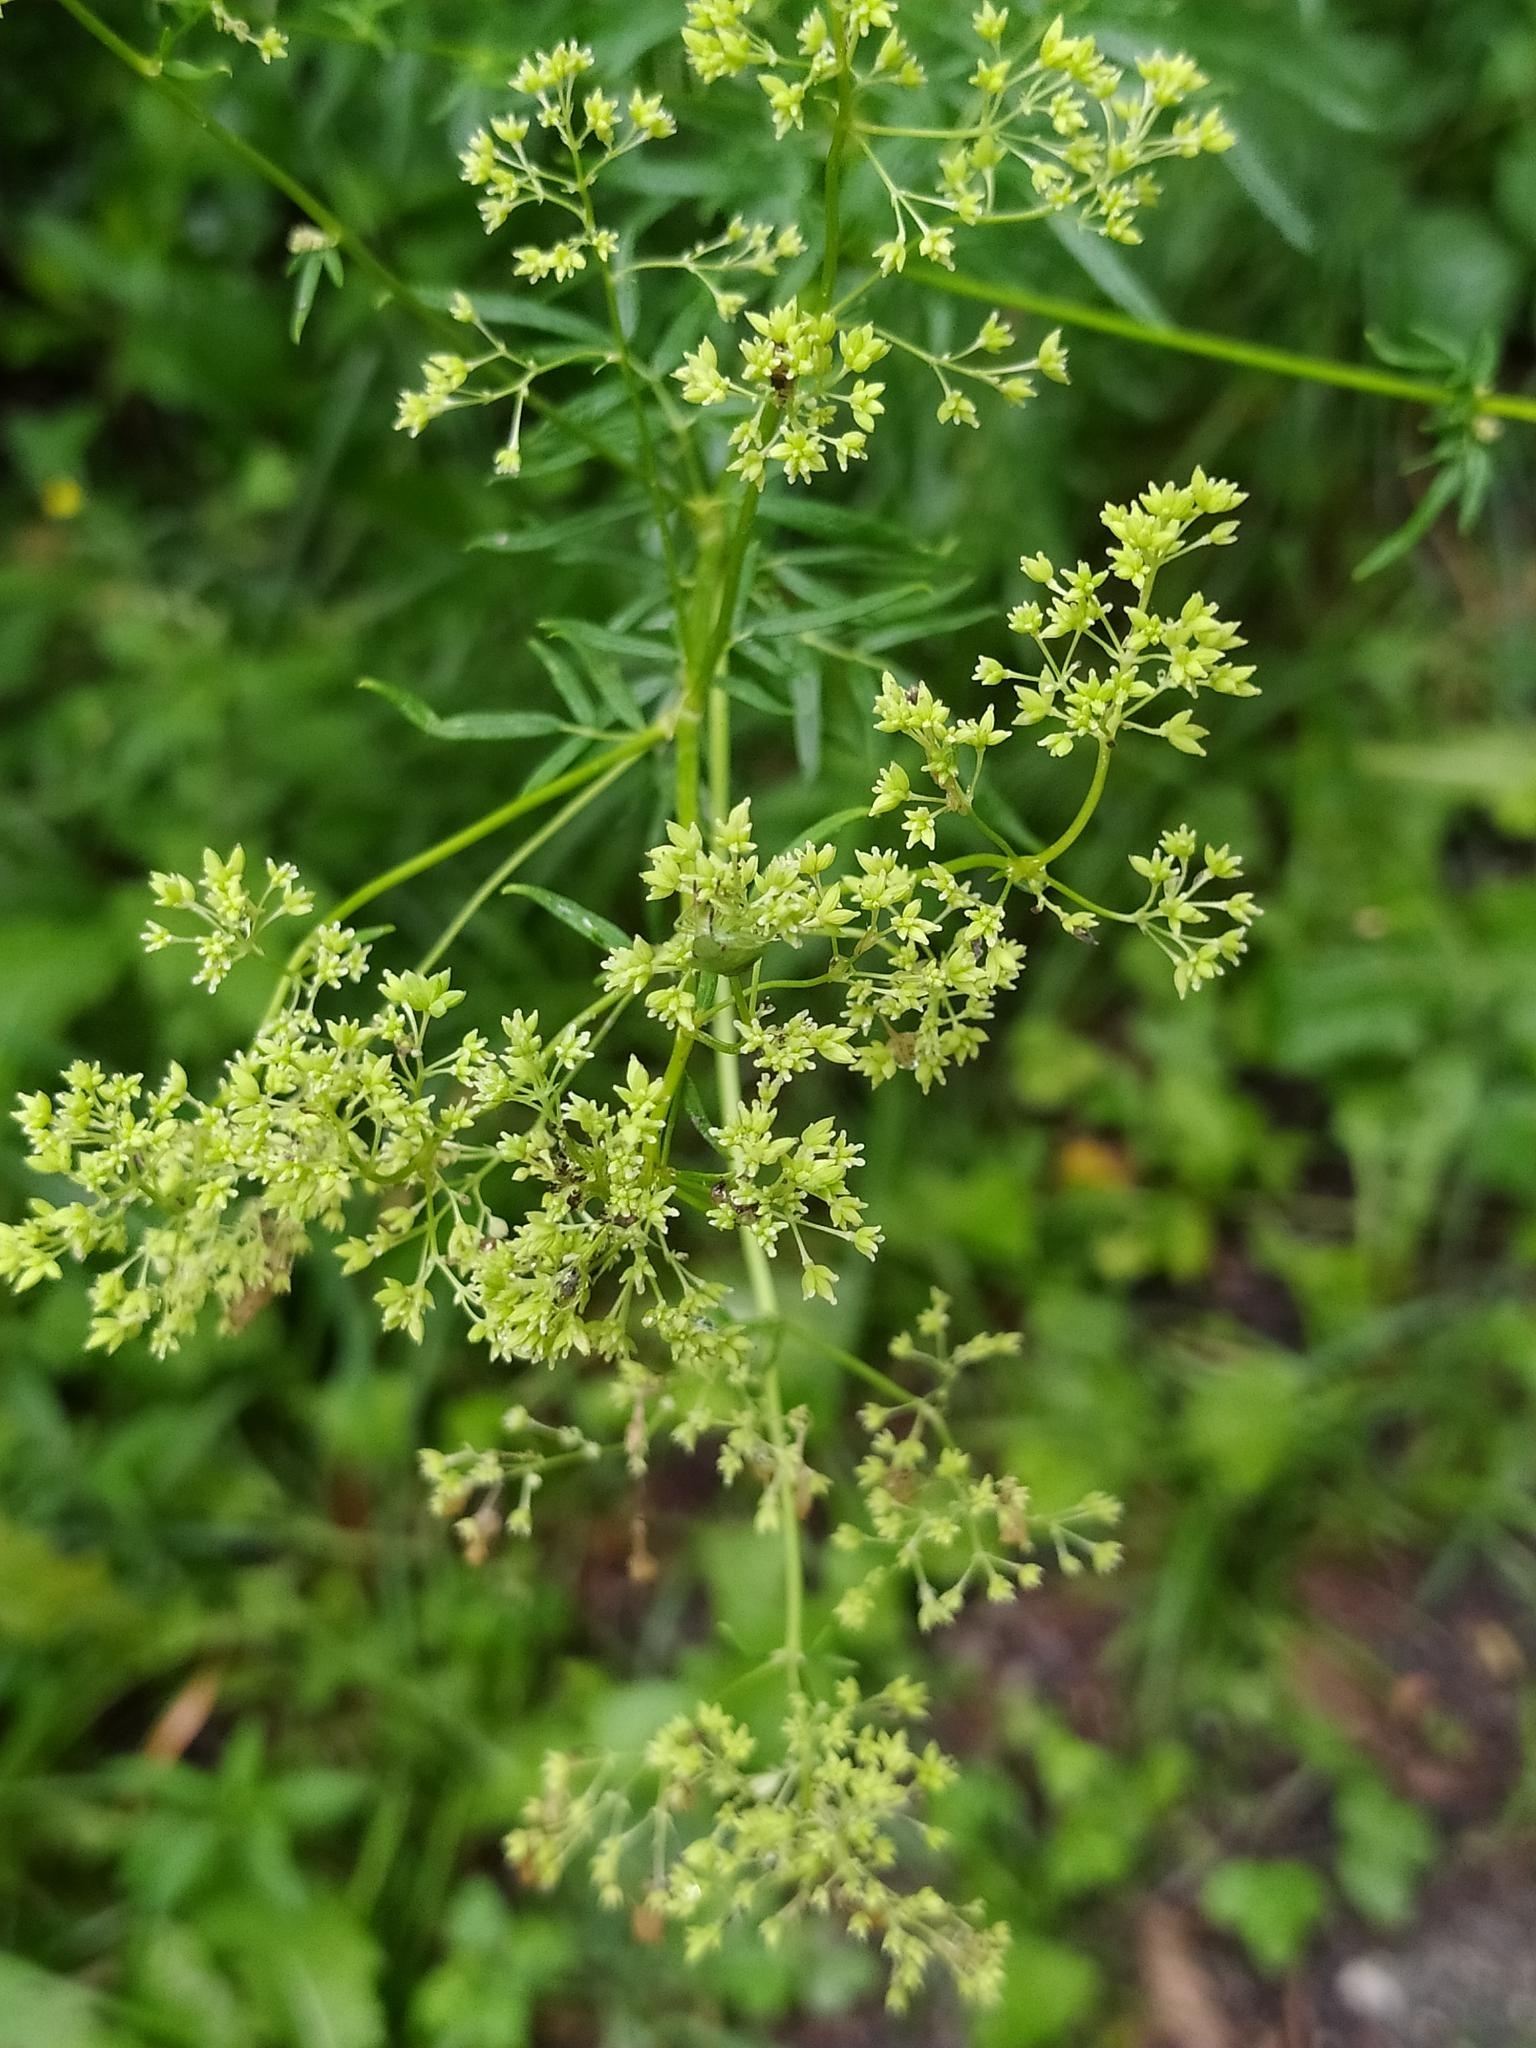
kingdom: Plantae
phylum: Tracheophyta
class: Magnoliopsida
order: Ranunculales
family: Ranunculaceae
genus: Thalictrum
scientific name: Thalictrum lucidum
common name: Shining meadow-rue
